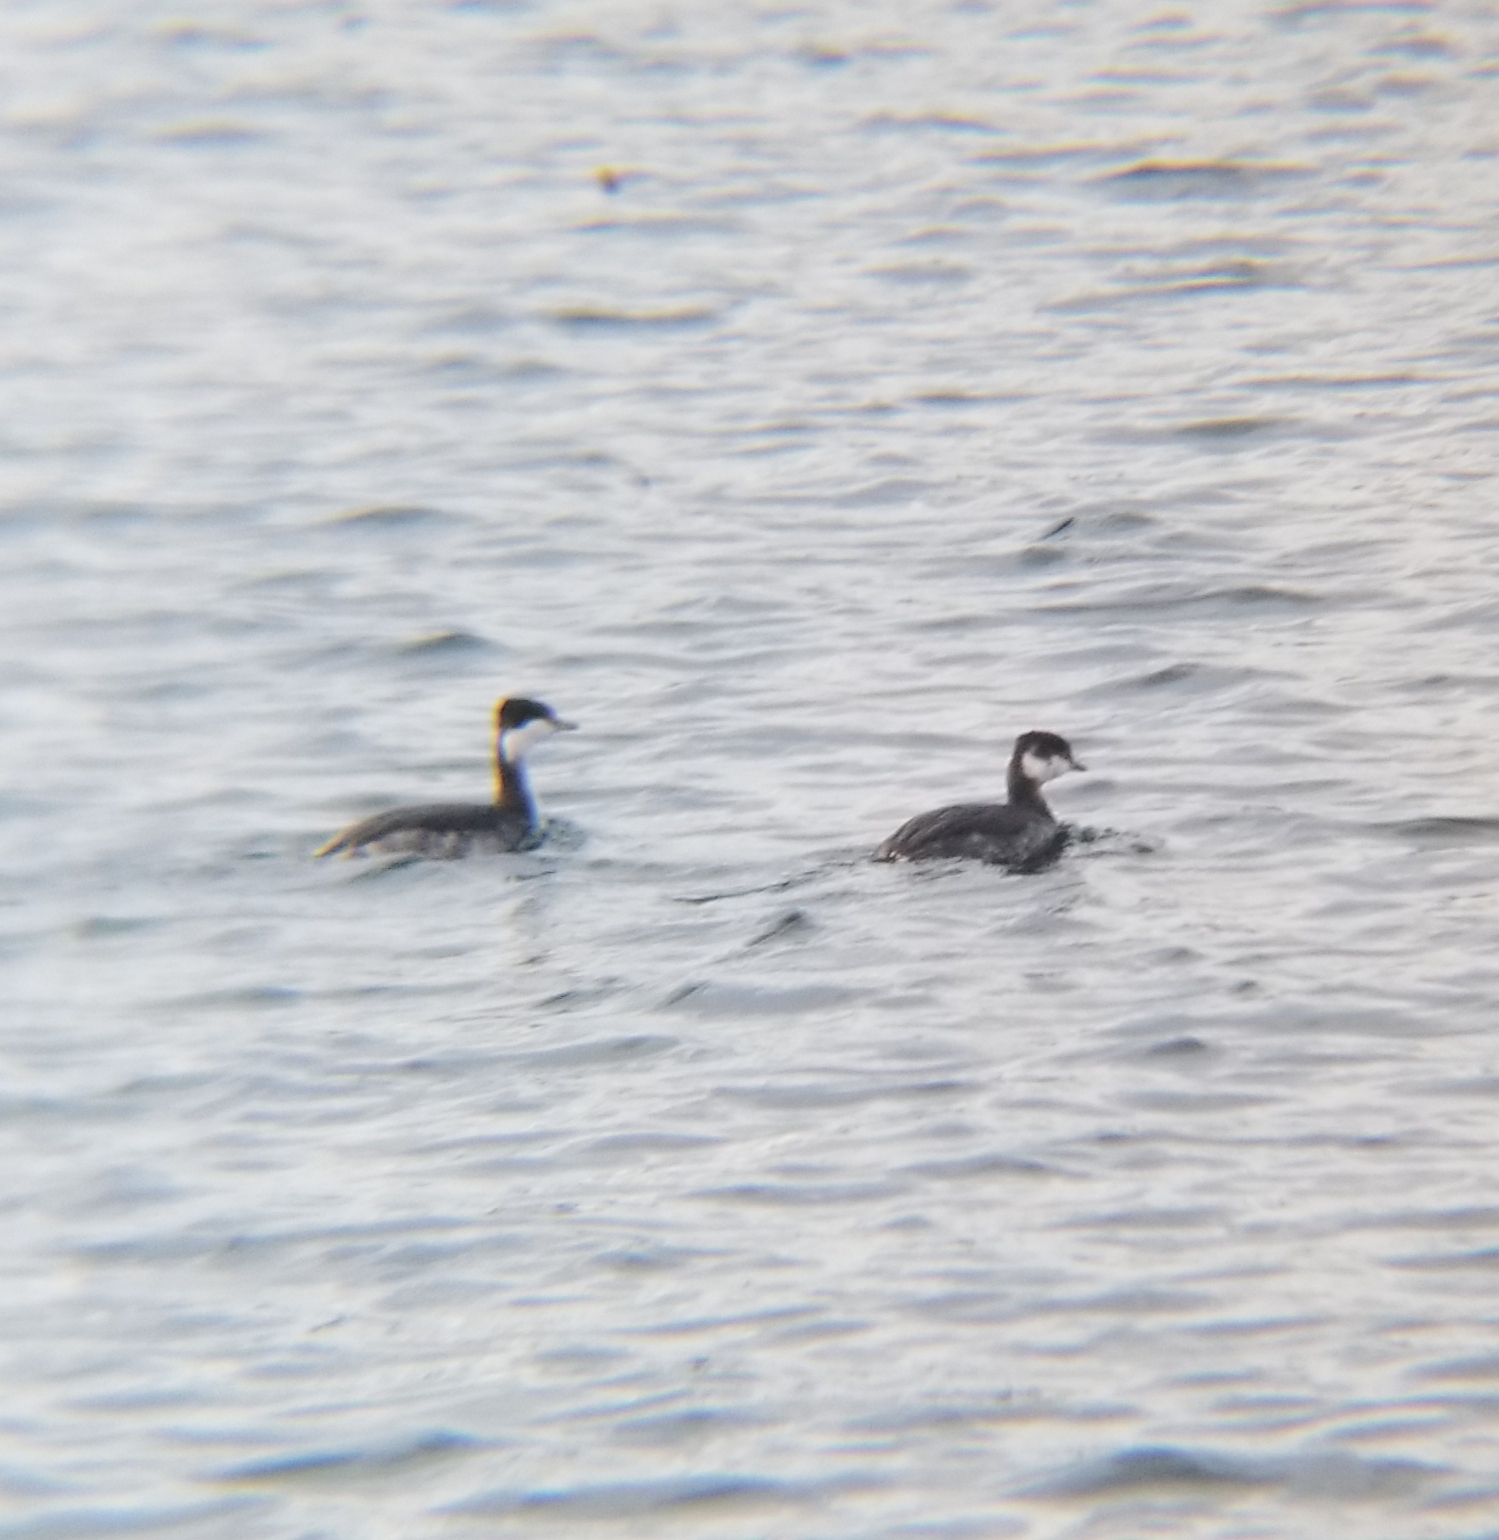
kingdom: Animalia
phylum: Chordata
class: Aves
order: Podicipediformes
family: Podicipedidae
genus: Podiceps
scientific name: Podiceps auritus
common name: Horned grebe
